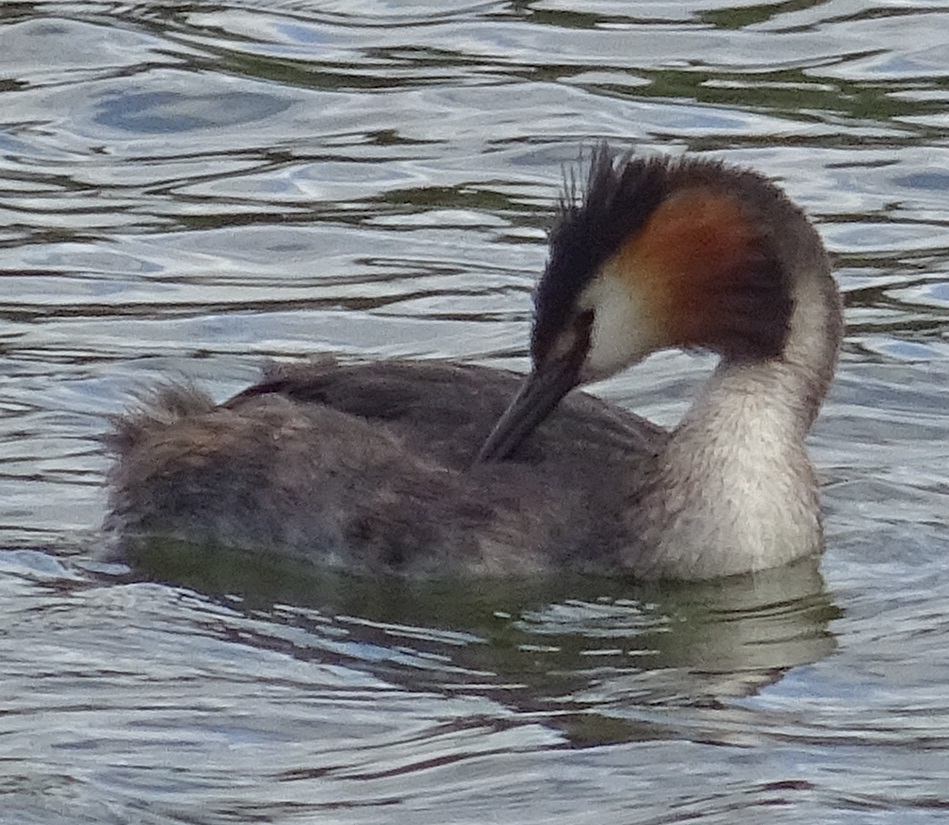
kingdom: Animalia
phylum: Chordata
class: Aves
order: Podicipediformes
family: Podicipedidae
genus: Podiceps
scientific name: Podiceps cristatus
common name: Great crested grebe
